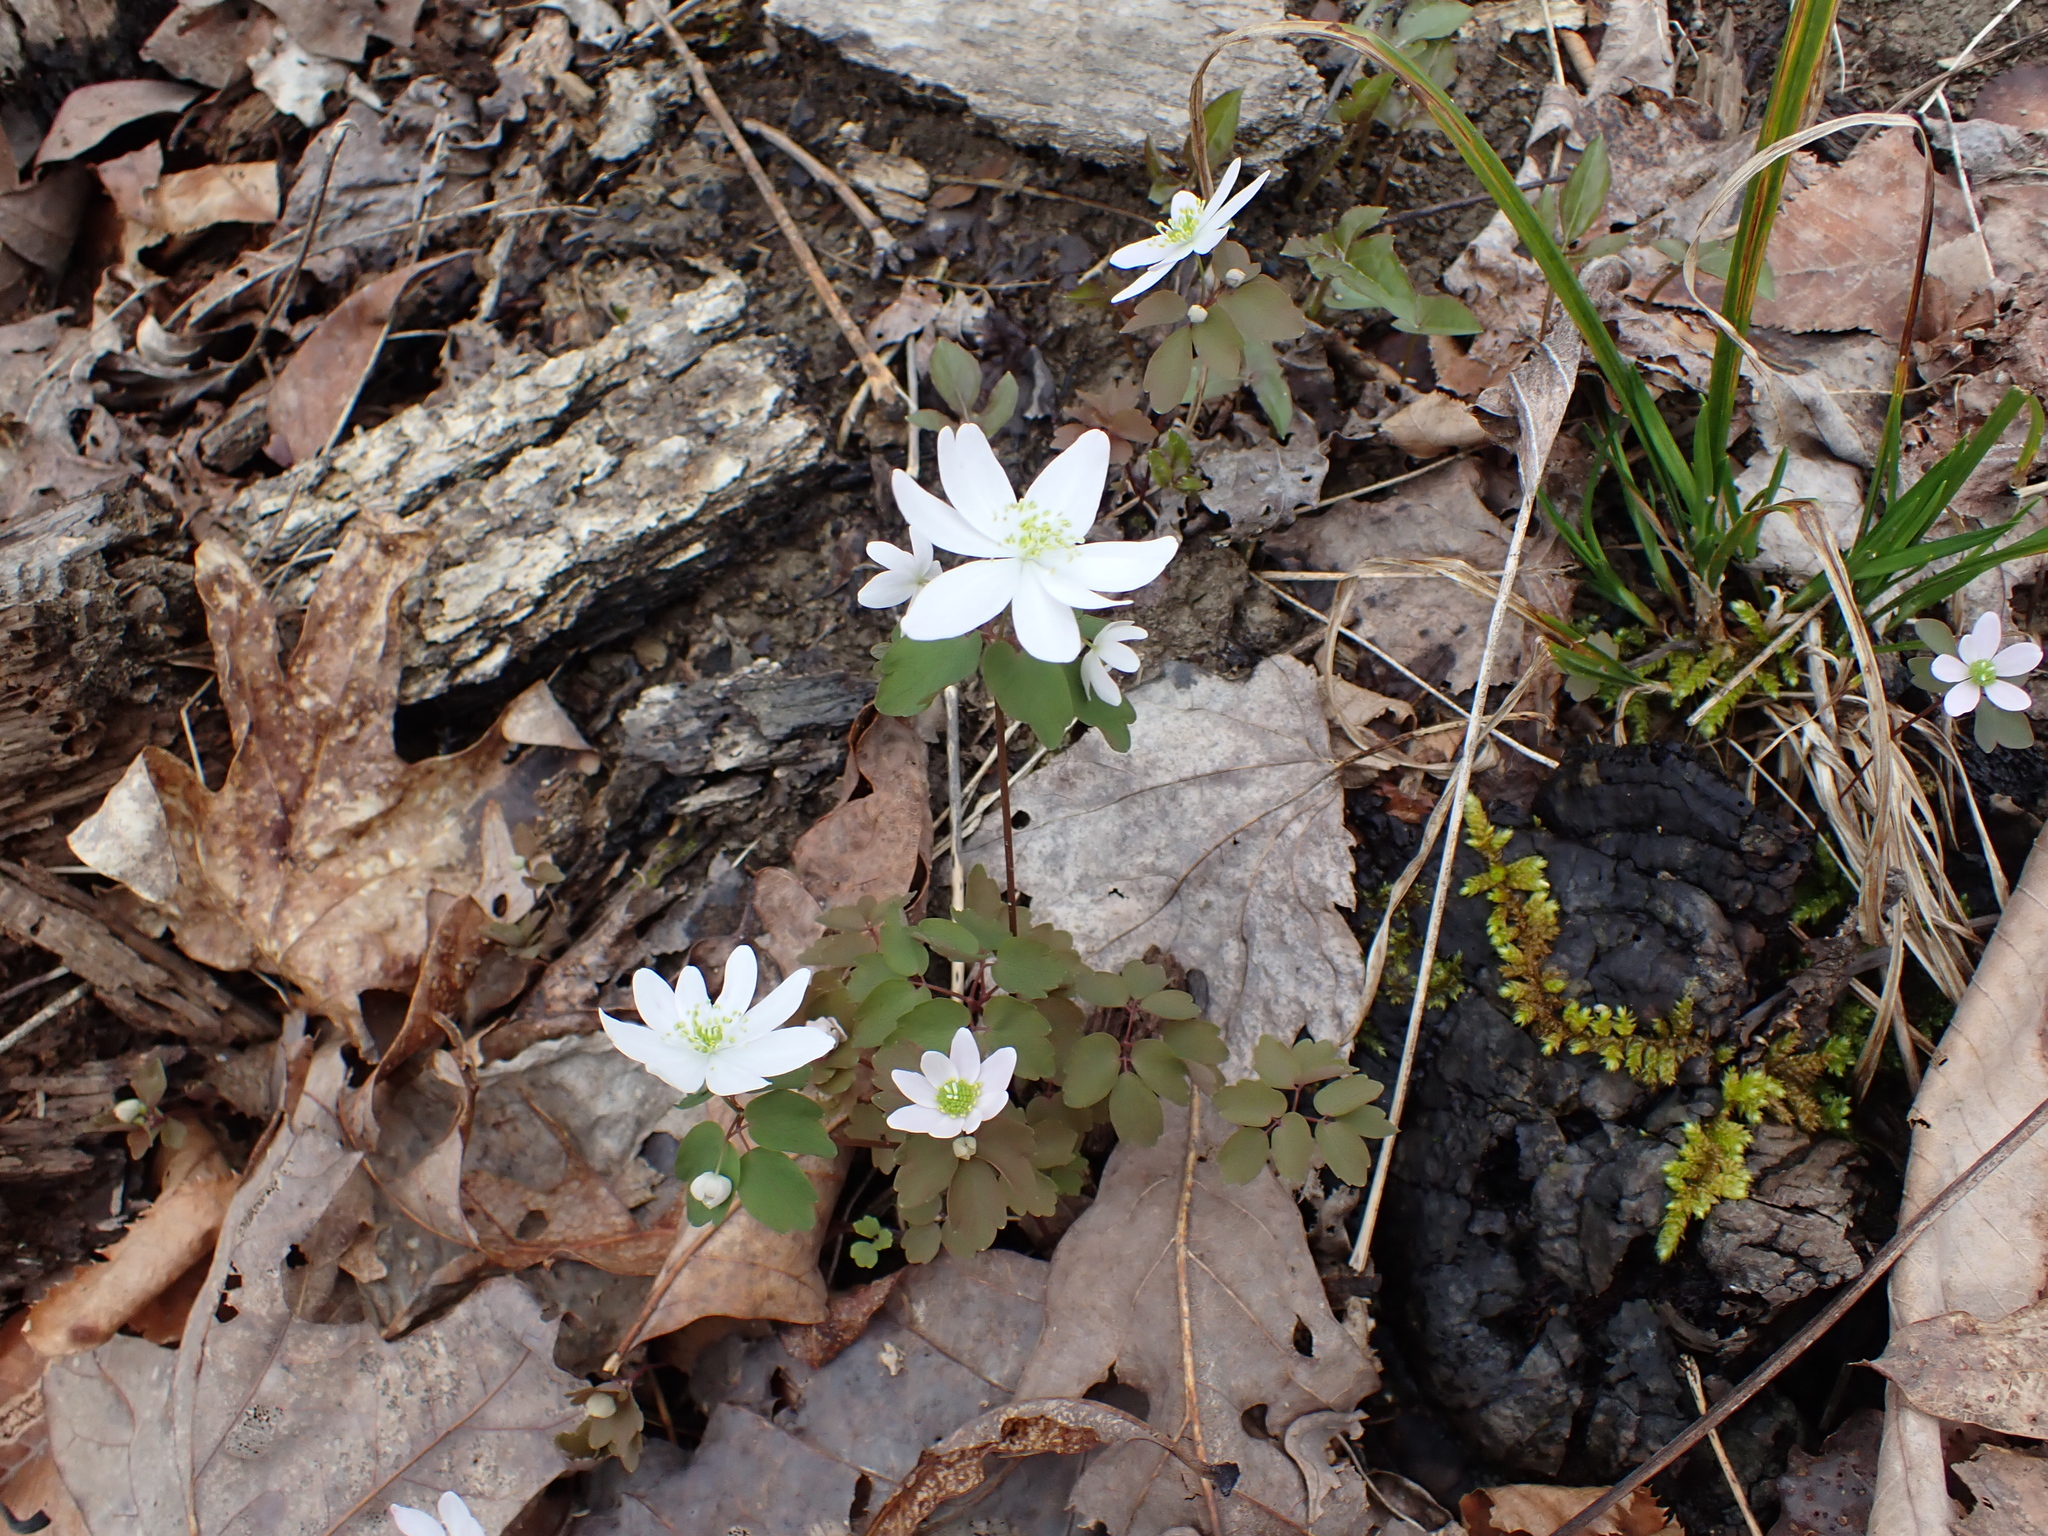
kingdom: Plantae
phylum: Tracheophyta
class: Magnoliopsida
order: Ranunculales
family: Ranunculaceae
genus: Thalictrum
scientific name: Thalictrum thalictroides
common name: Rue-anemone
